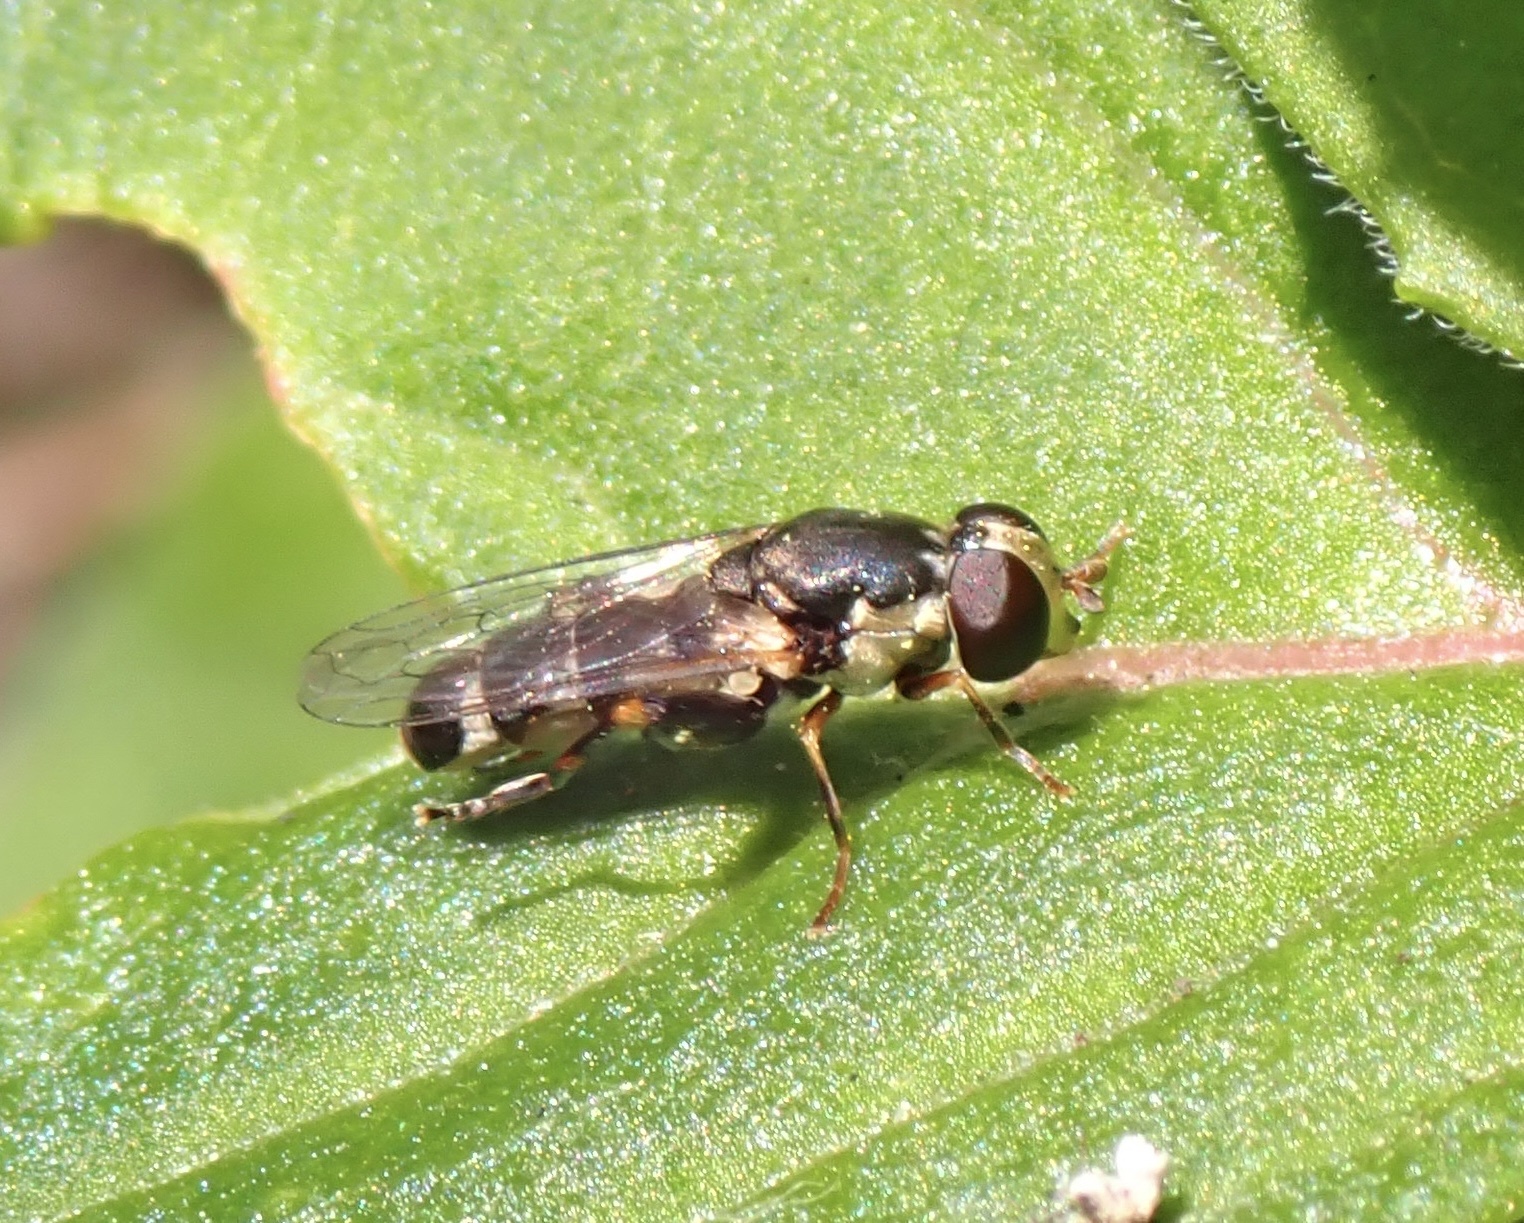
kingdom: Animalia
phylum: Arthropoda
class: Insecta
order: Diptera
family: Syrphidae
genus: Syritta
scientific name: Syritta pipiens
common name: Hover fly
